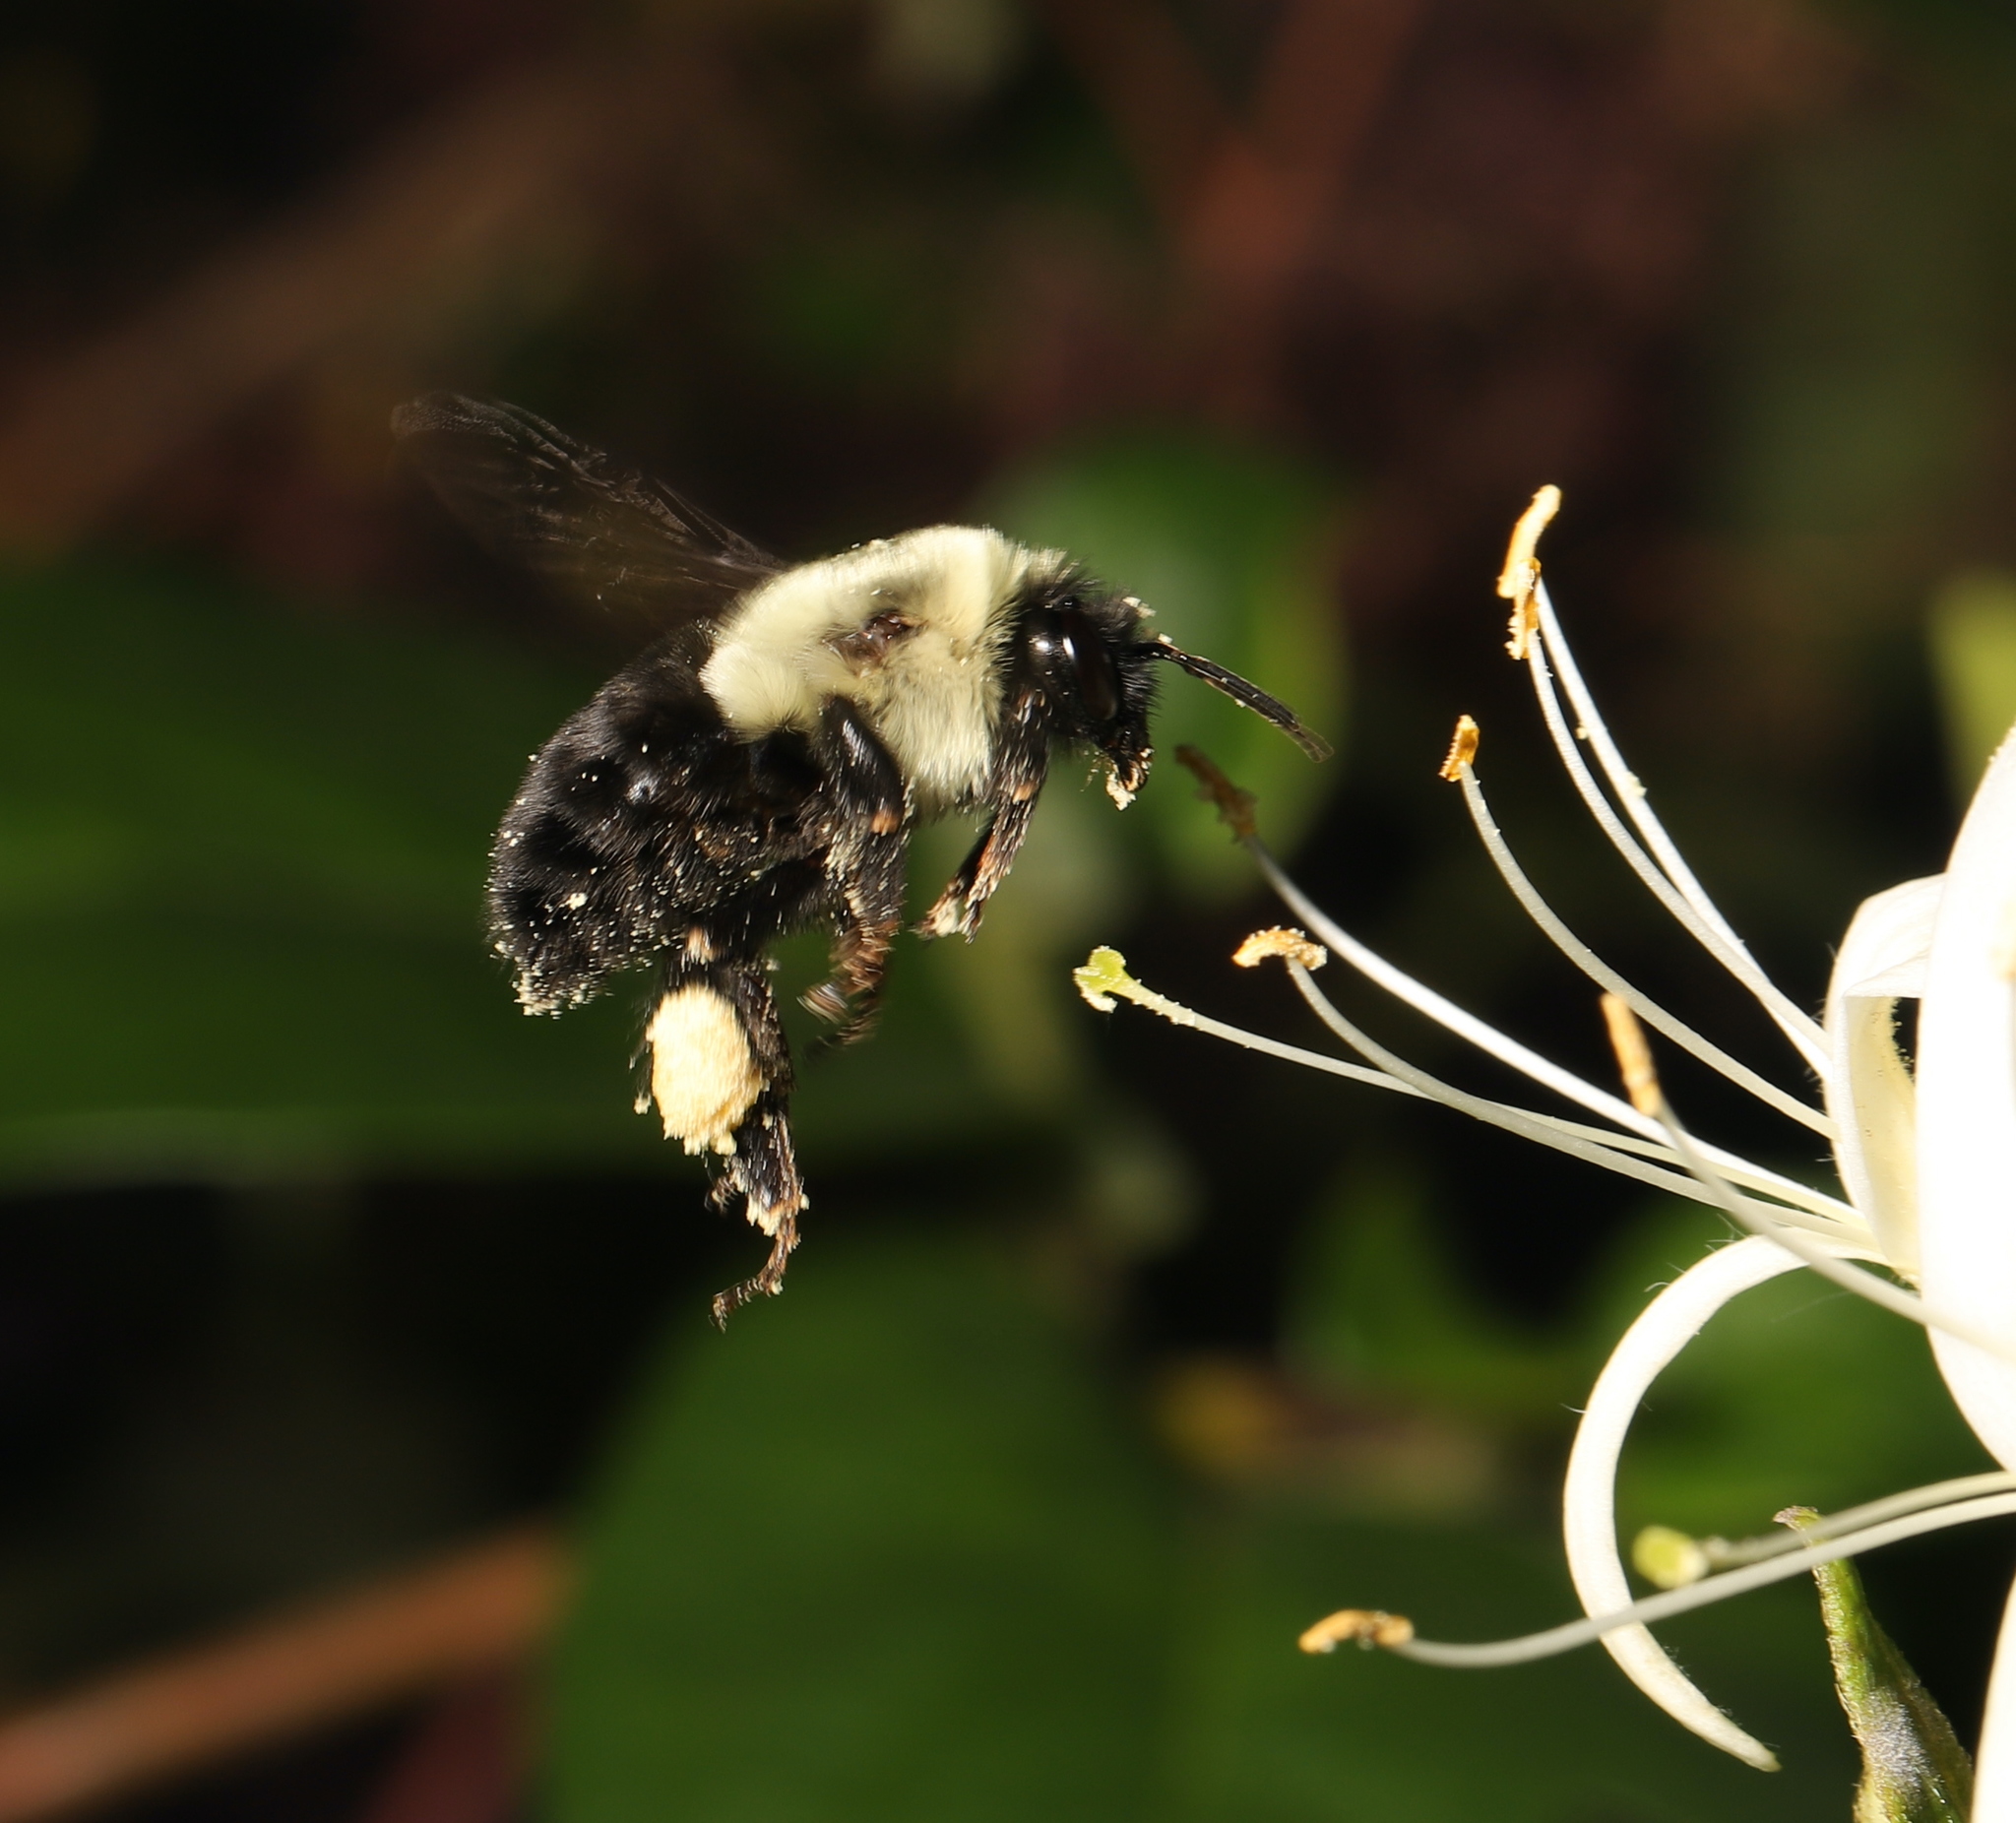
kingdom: Animalia
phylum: Arthropoda
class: Insecta
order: Hymenoptera
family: Apidae
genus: Bombus
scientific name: Bombus impatiens
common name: Common eastern bumble bee
